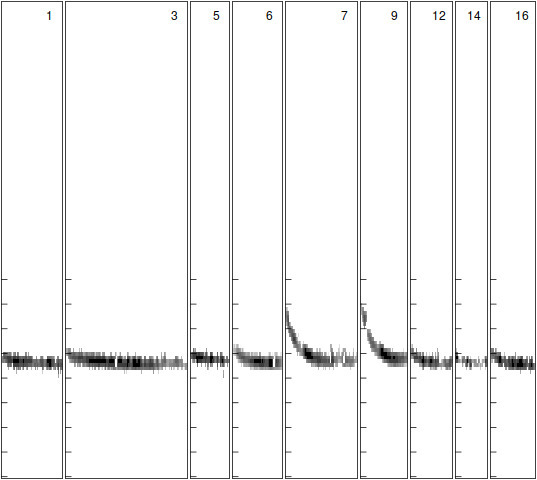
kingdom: Animalia
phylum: Chordata
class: Mammalia
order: Chiroptera
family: Vespertilionidae
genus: Pipistrellus
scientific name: Pipistrellus pipistrellus
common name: Common pipistrelle
